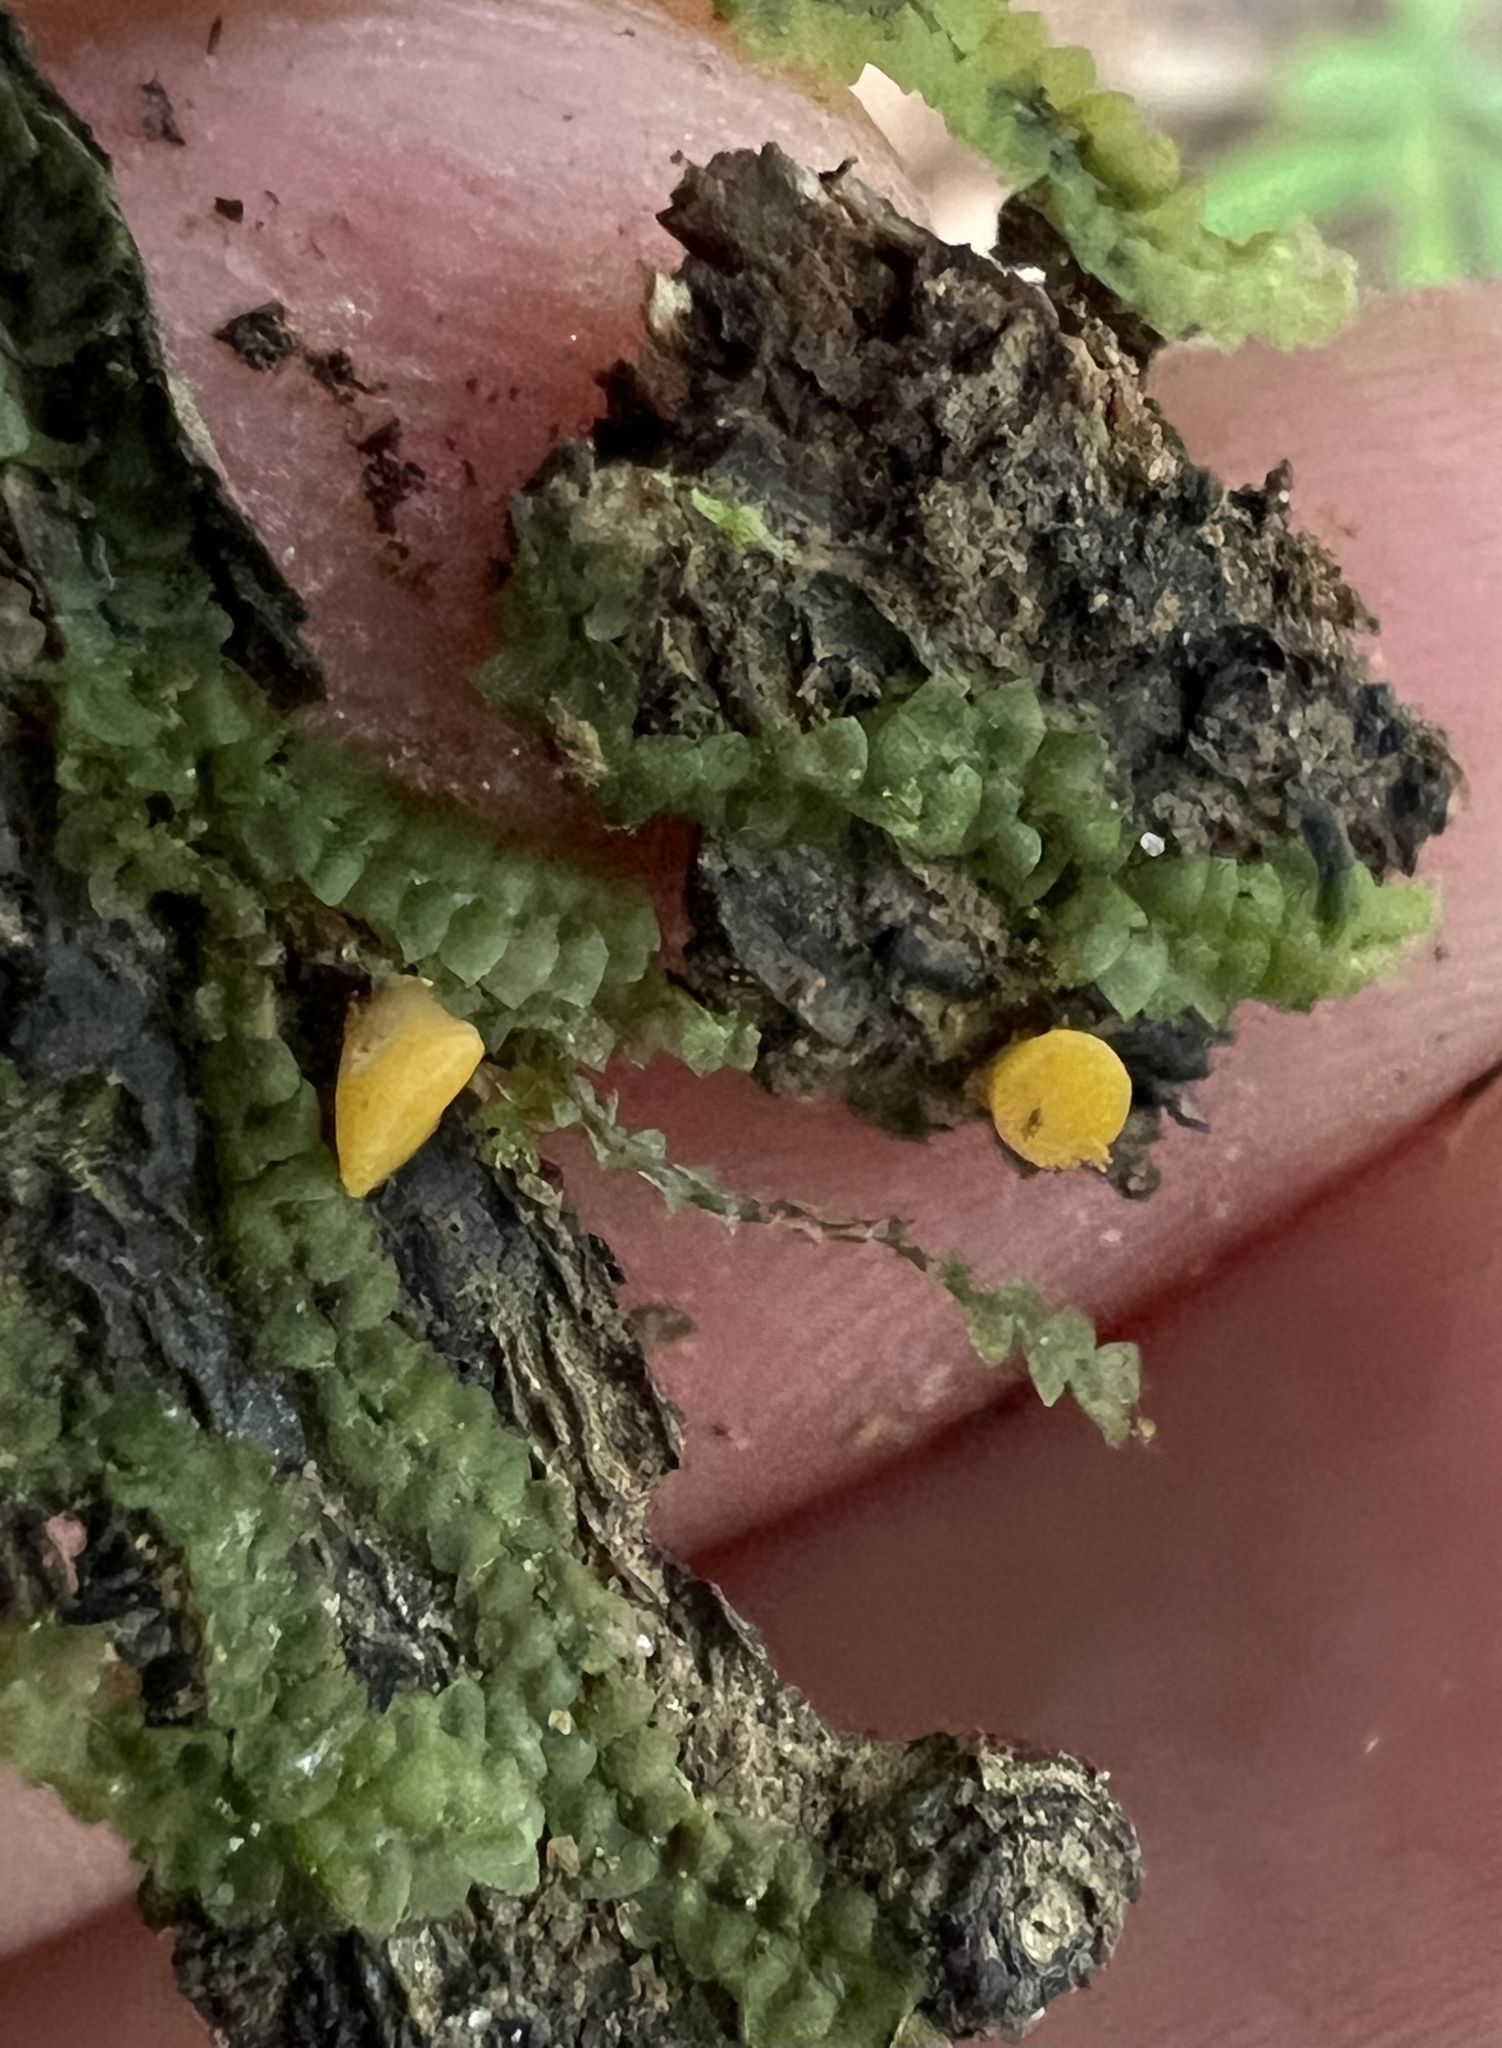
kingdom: Fungi
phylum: Ascomycota
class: Leotiomycetes
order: Helotiales
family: Pezizellaceae
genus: Calycina
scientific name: Calycina citrina
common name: Yellow fairy cups
